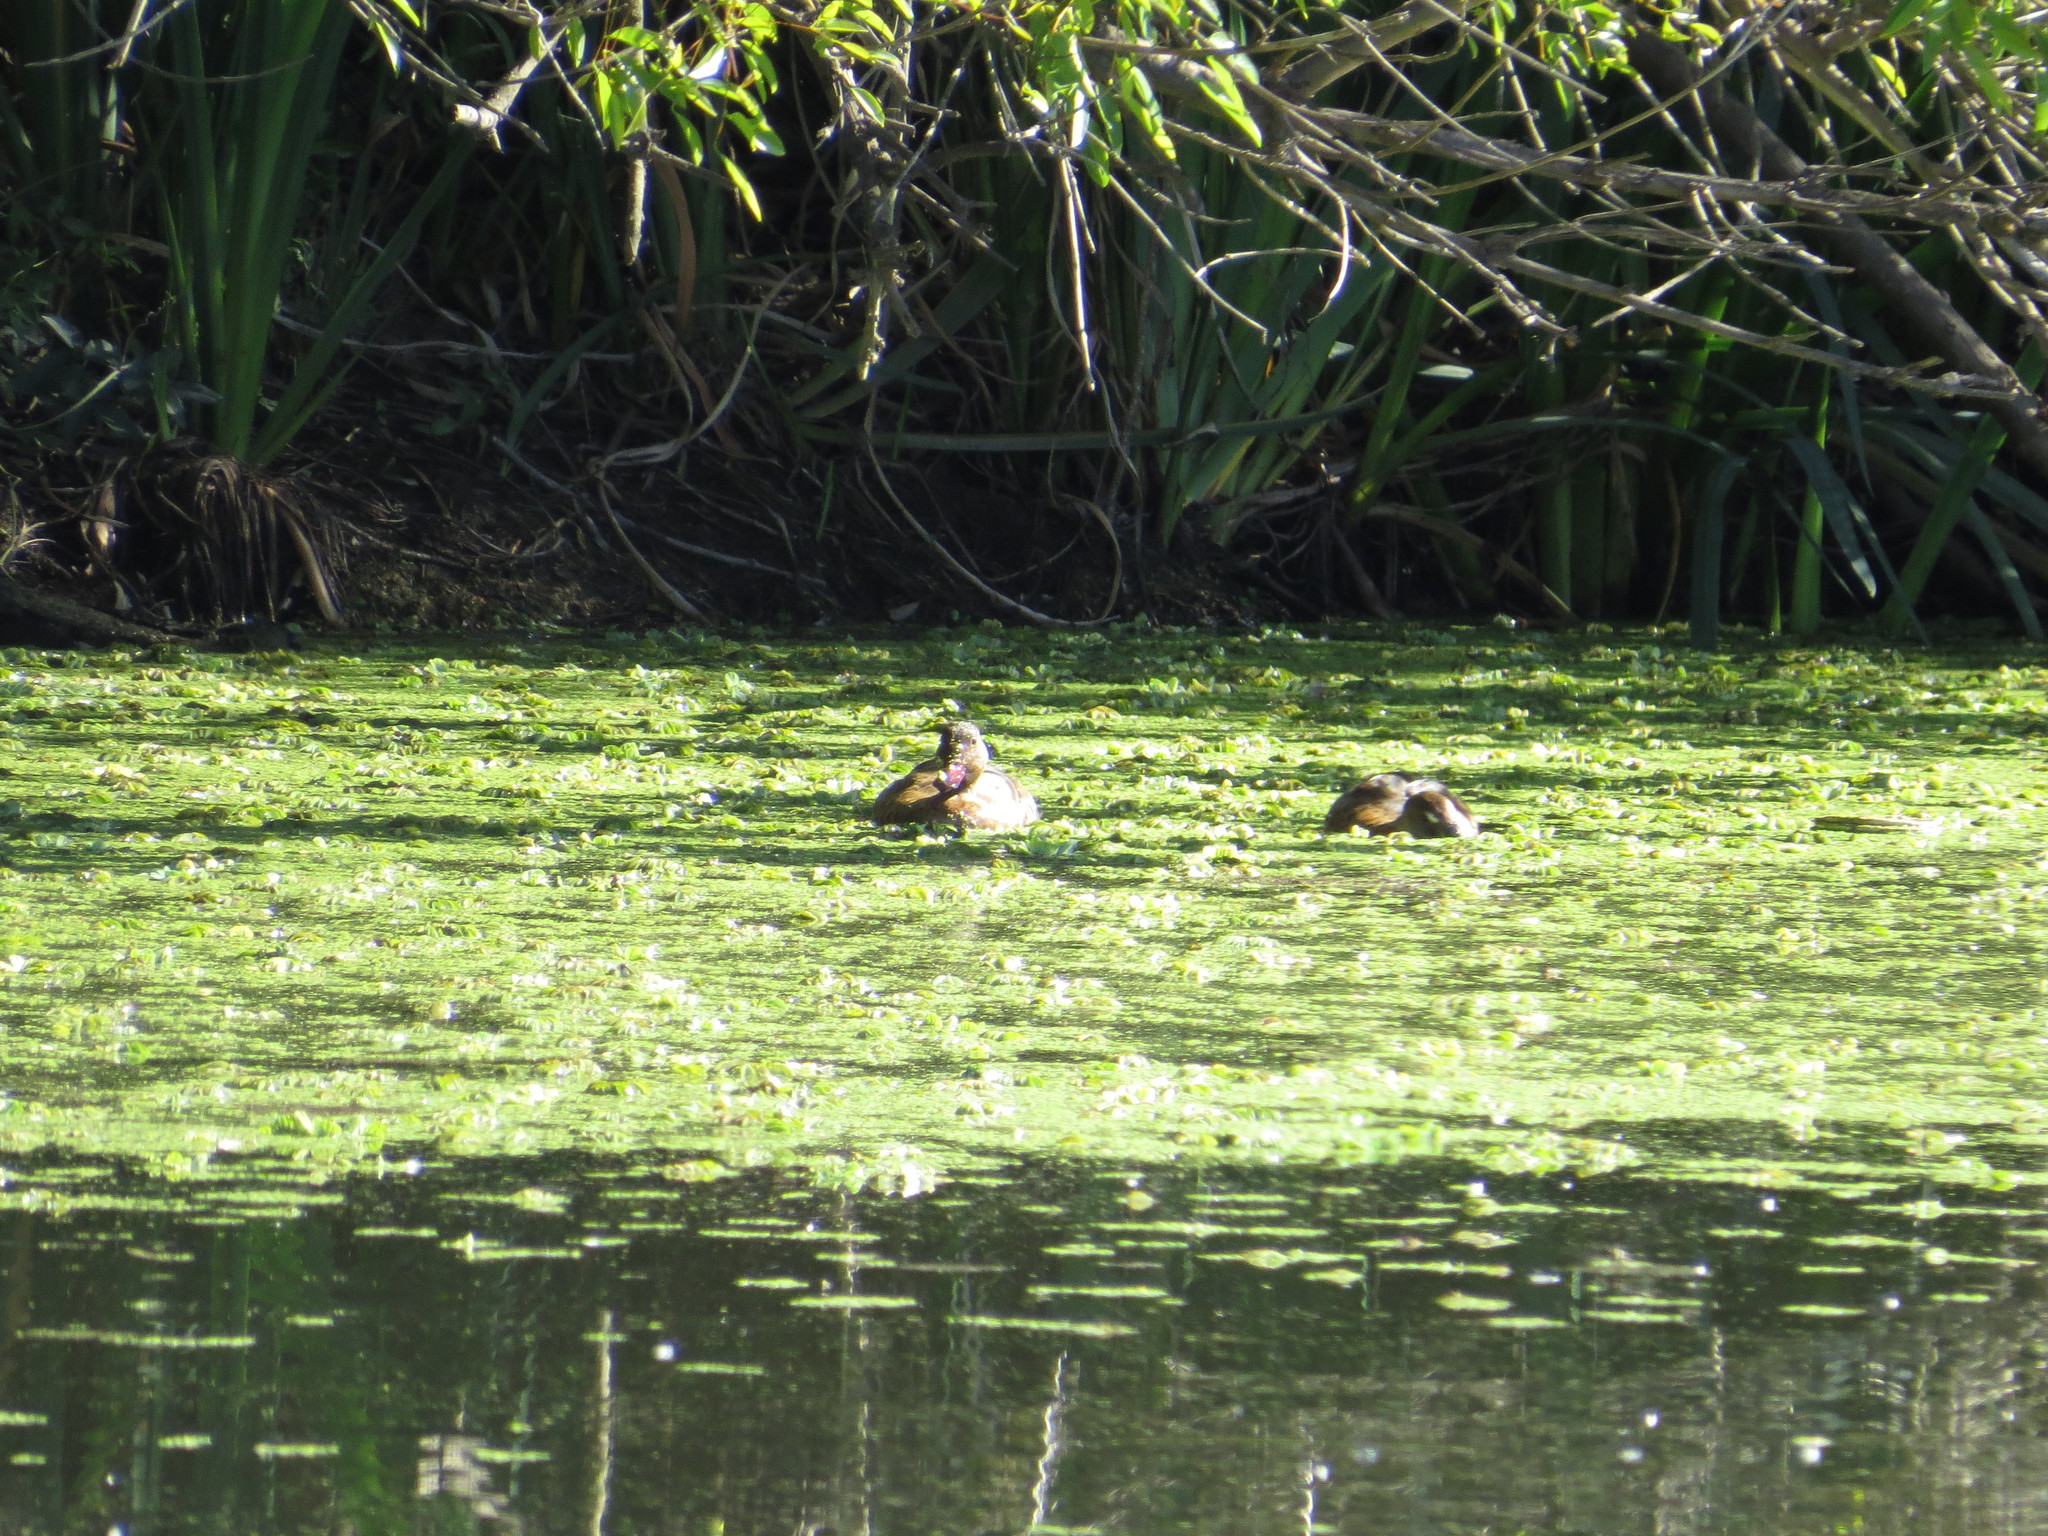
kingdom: Animalia
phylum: Chordata
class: Aves
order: Anseriformes
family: Anatidae
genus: Amazonetta
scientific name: Amazonetta brasiliensis
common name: Brazilian teal
